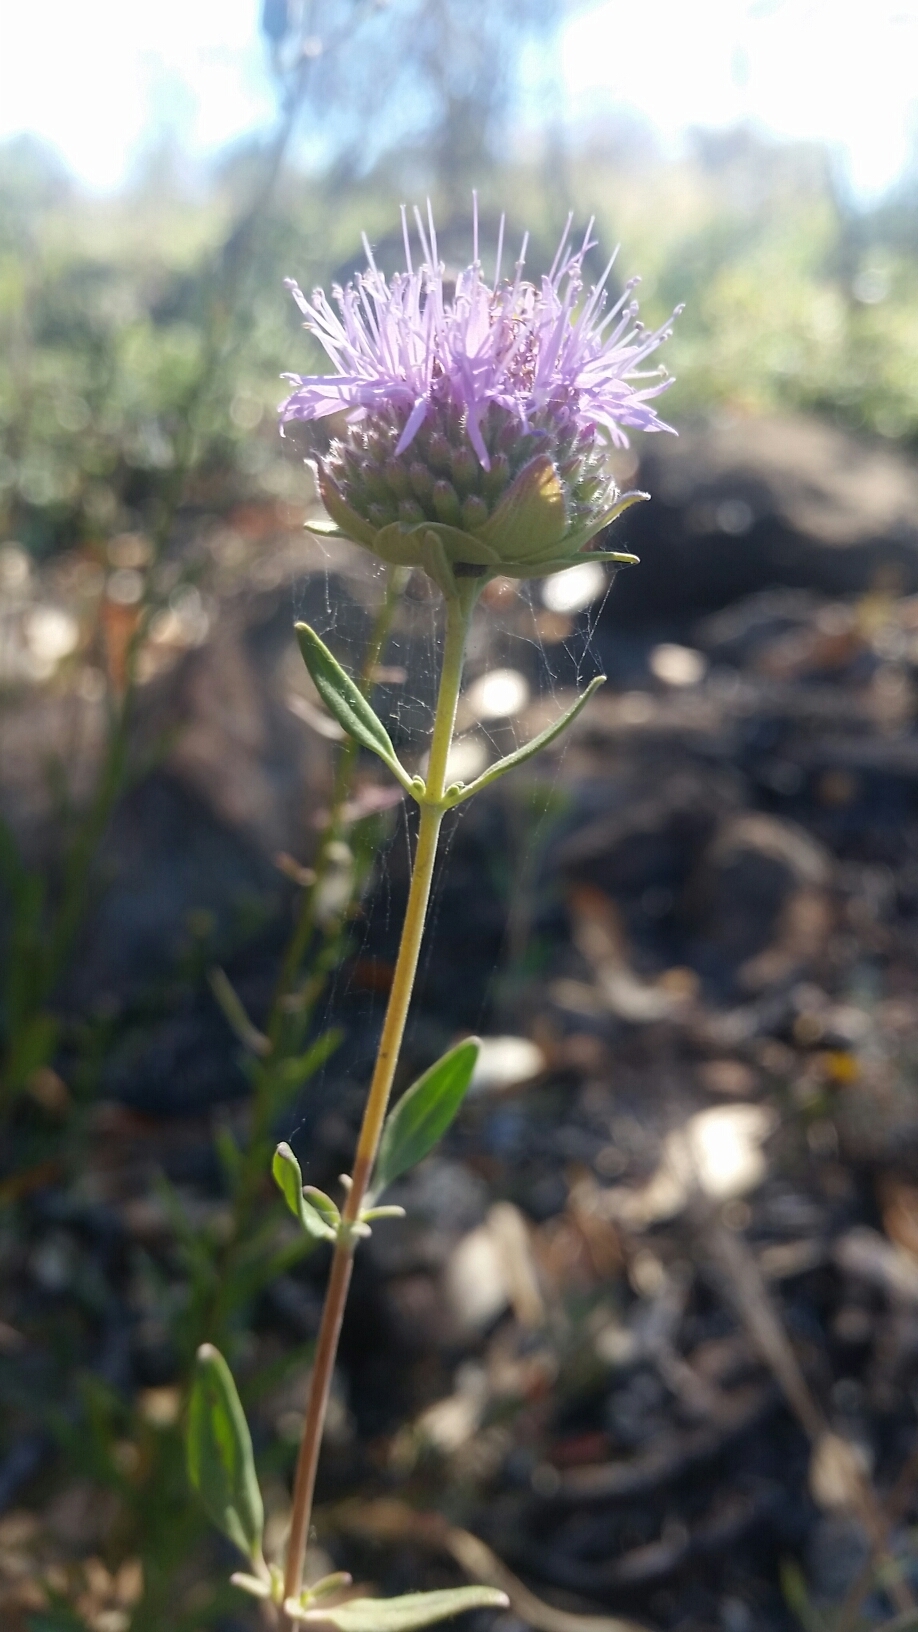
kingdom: Plantae
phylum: Tracheophyta
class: Magnoliopsida
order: Lamiales
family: Lamiaceae
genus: Monardella
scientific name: Monardella odoratissima
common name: Pacific monardella
